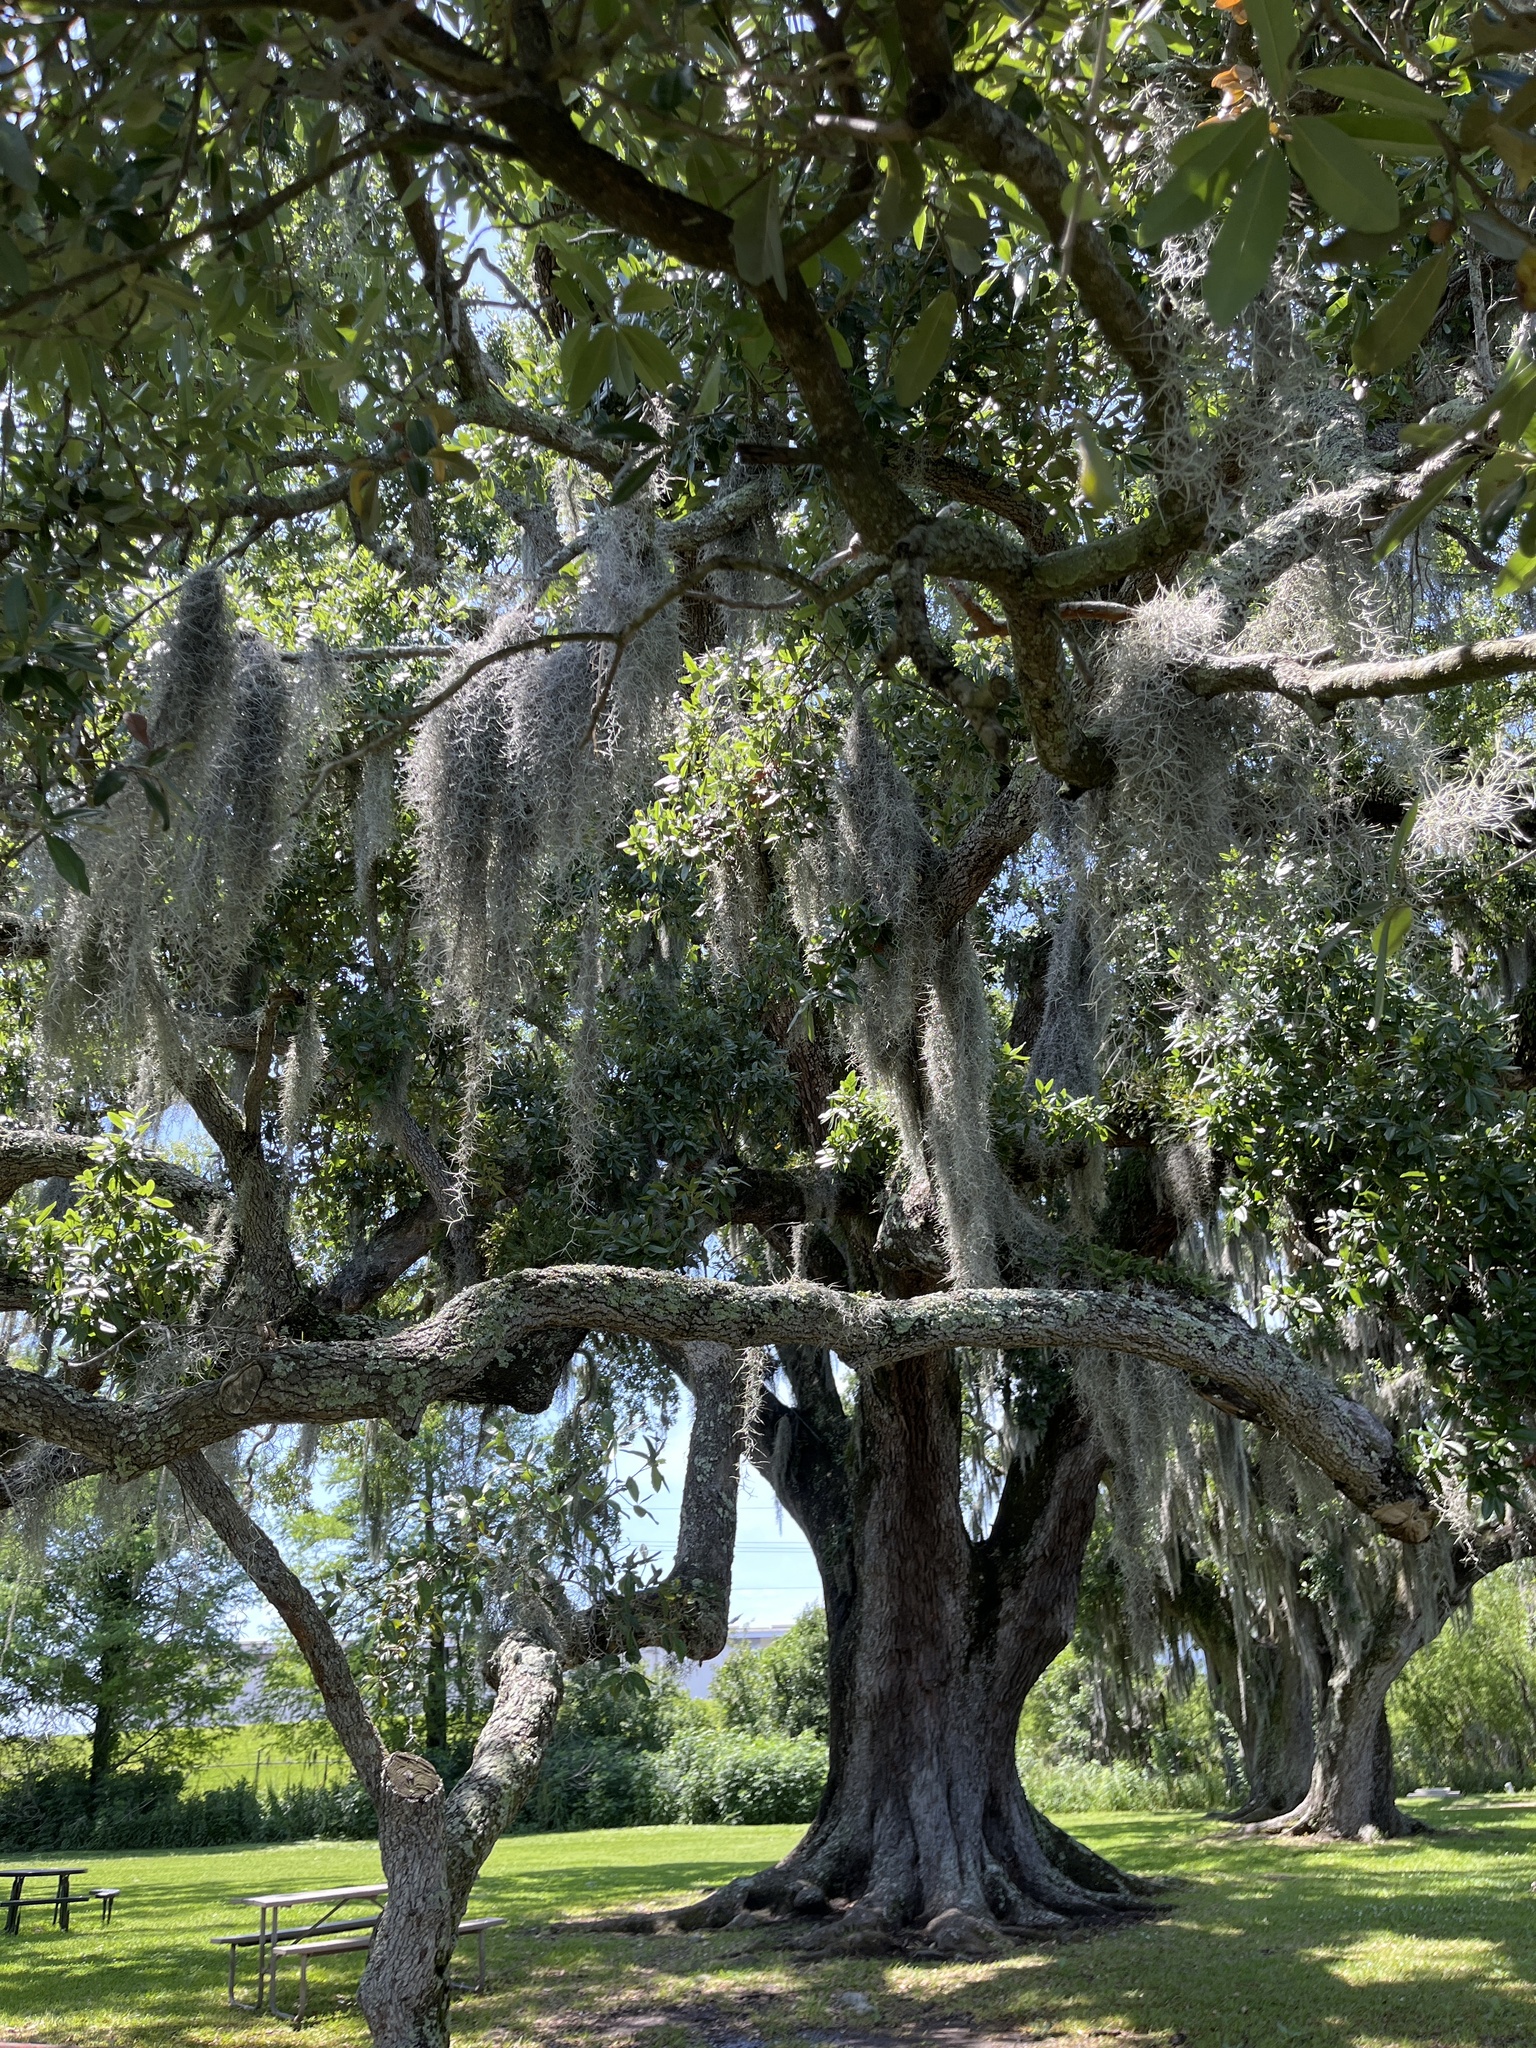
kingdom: Plantae
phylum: Tracheophyta
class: Liliopsida
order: Poales
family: Bromeliaceae
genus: Tillandsia
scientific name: Tillandsia usneoides
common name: Spanish moss
